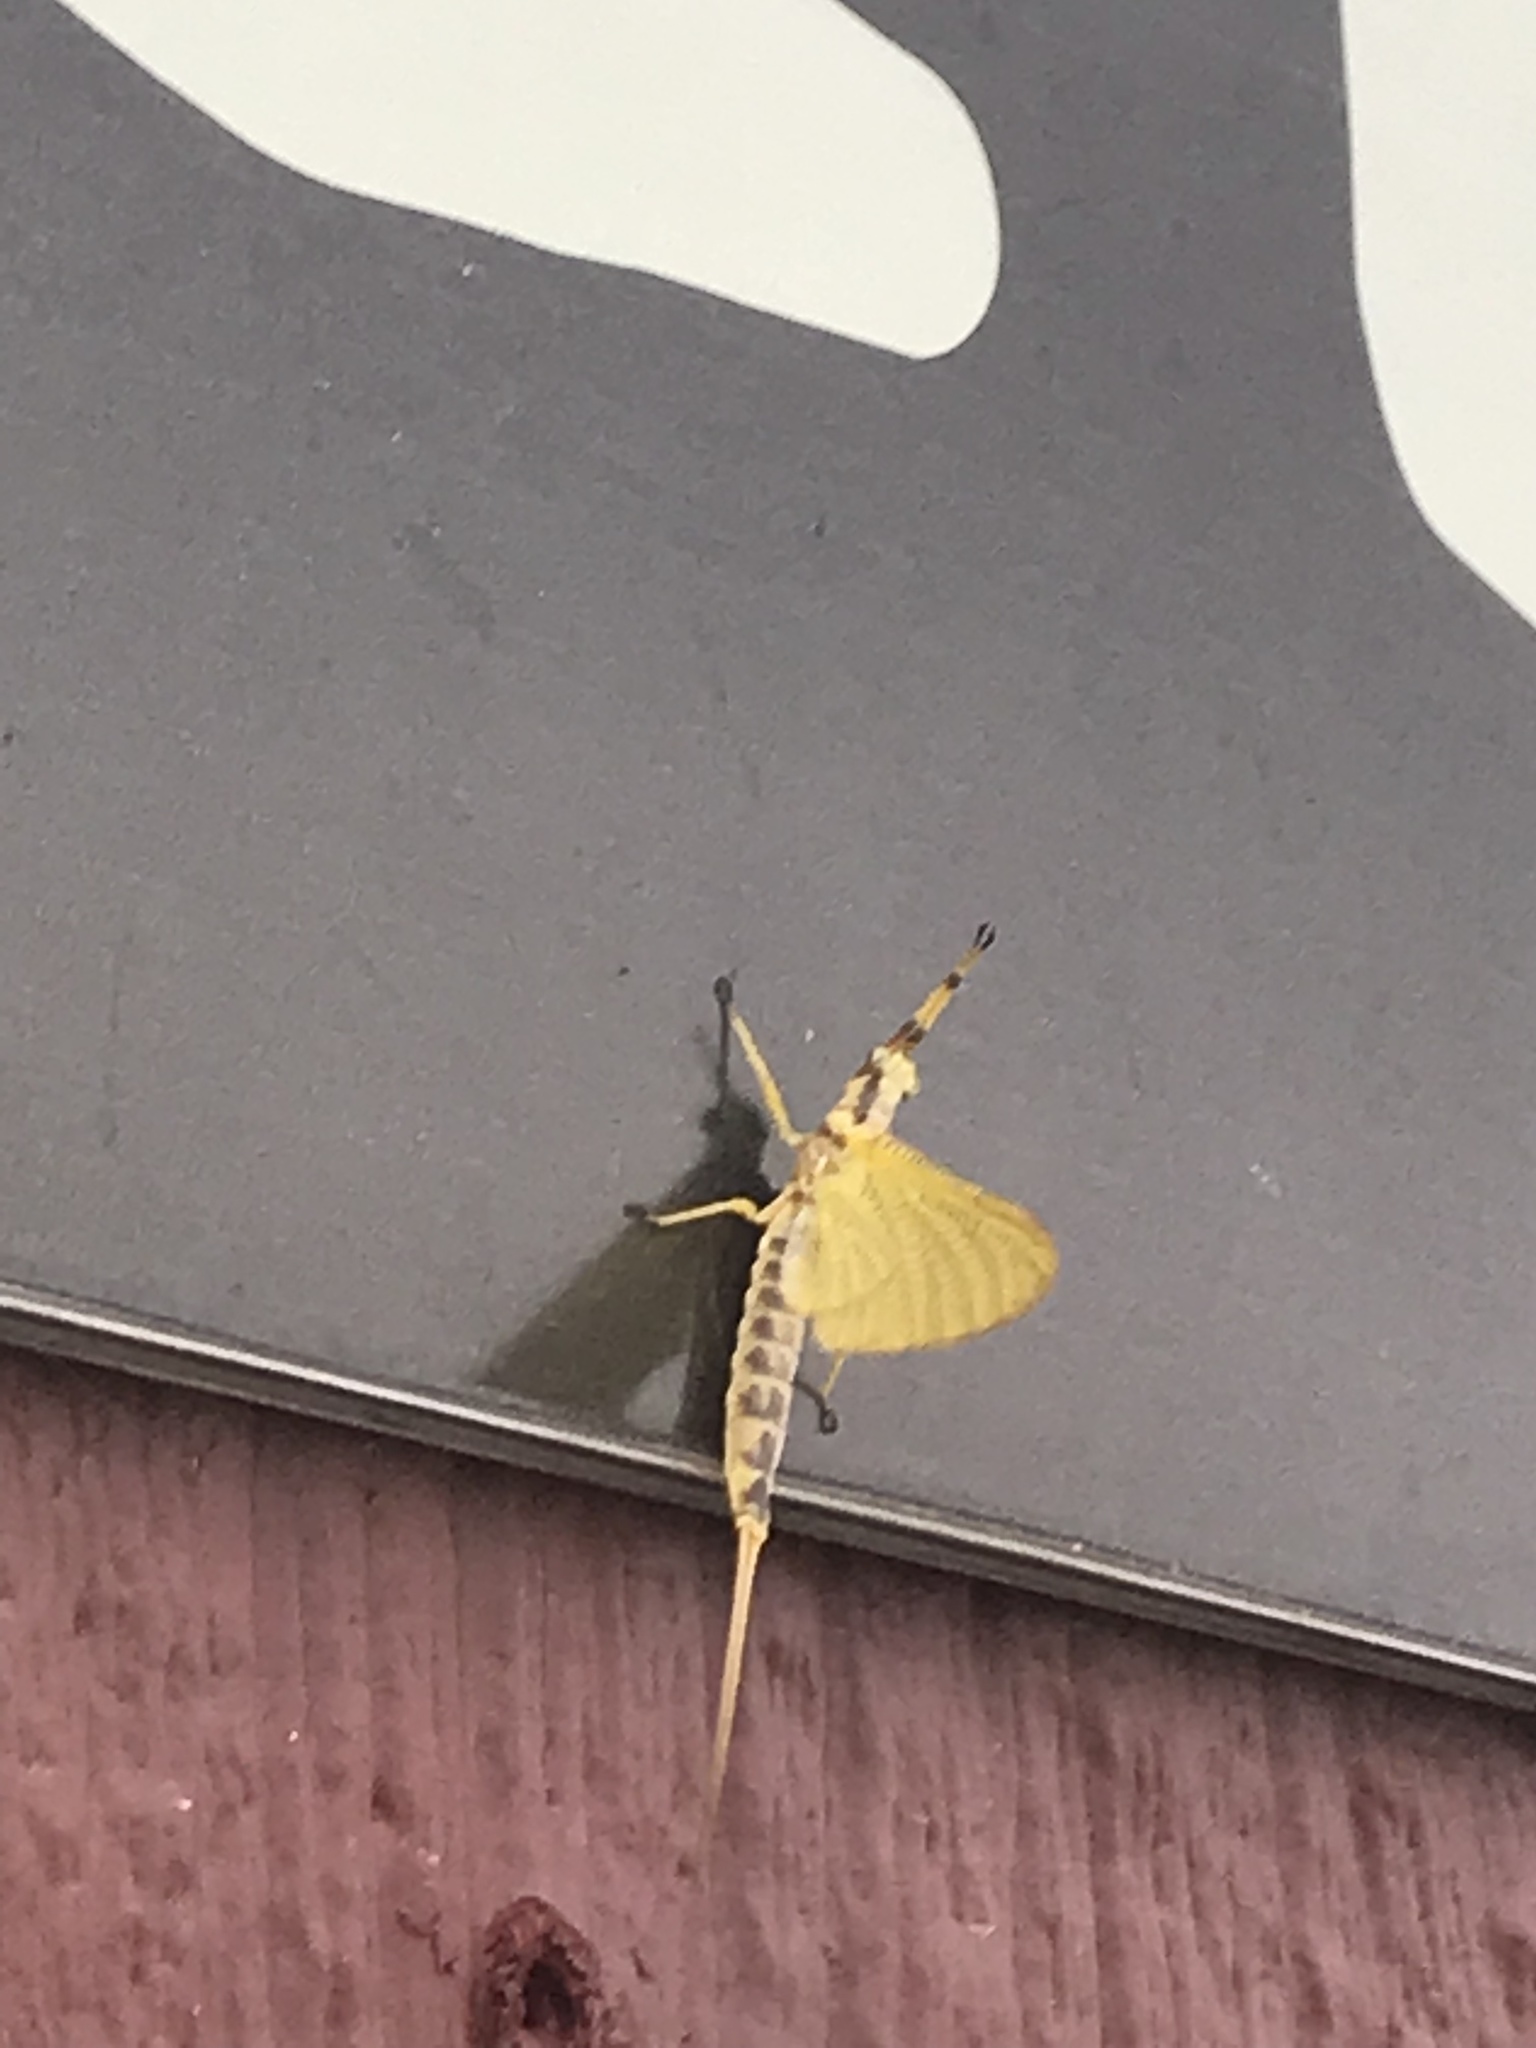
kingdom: Animalia
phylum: Arthropoda
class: Insecta
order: Ephemeroptera
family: Ephemeridae
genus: Hexagenia
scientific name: Hexagenia
